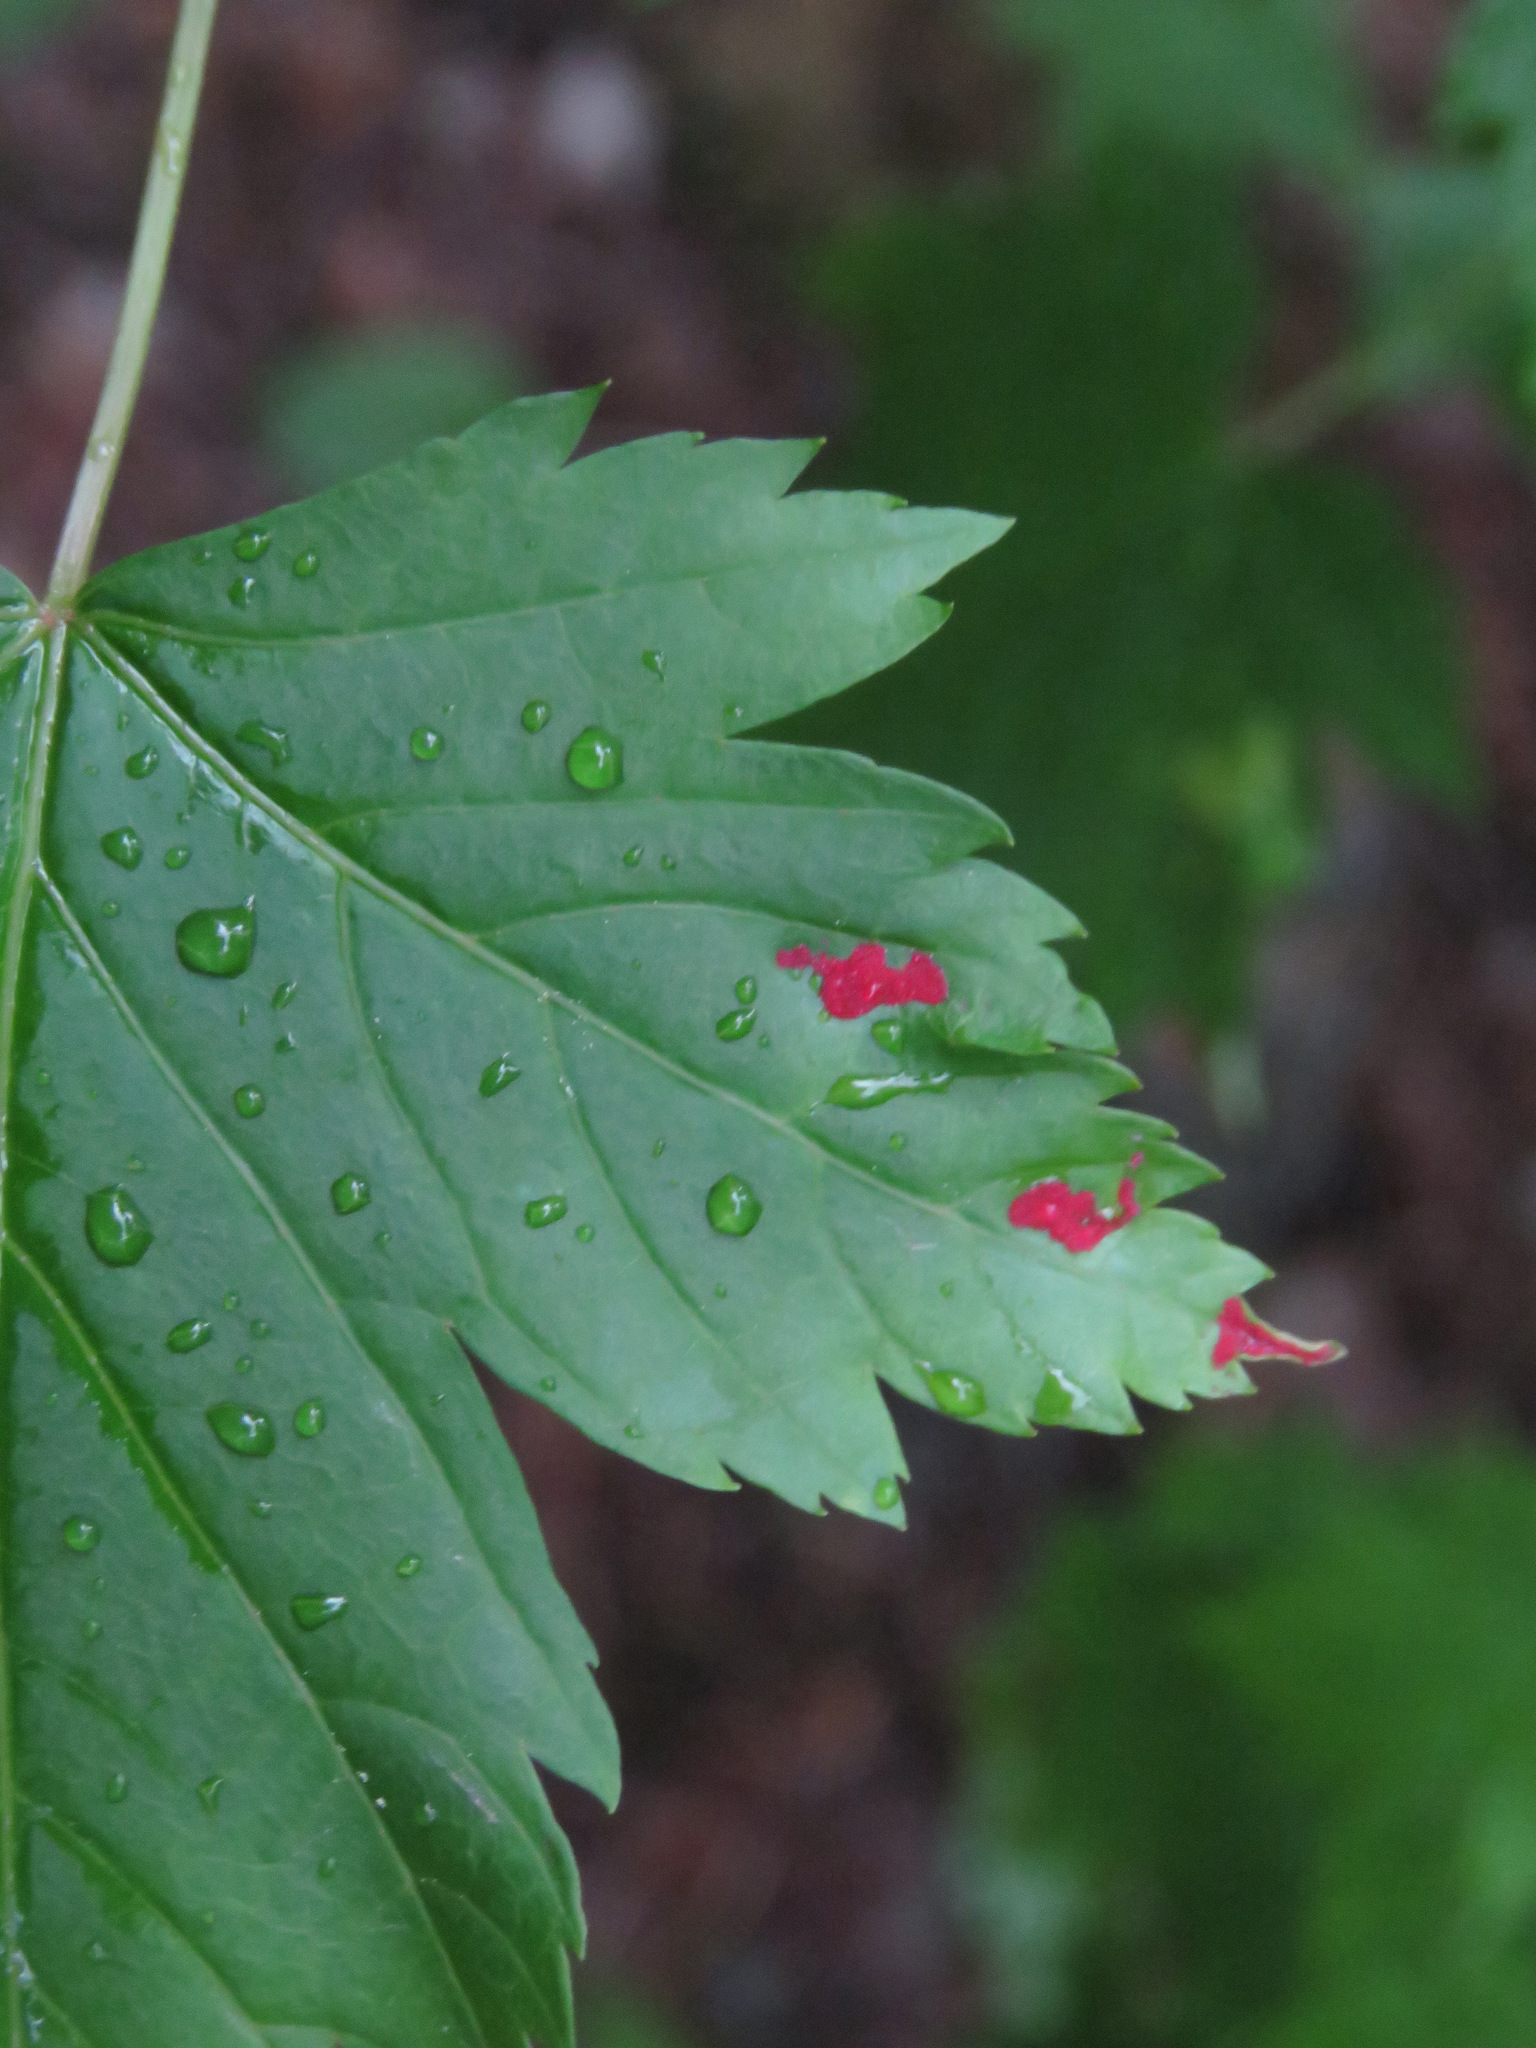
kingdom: Animalia
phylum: Arthropoda
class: Arachnida
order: Trombidiformes
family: Eriophyidae
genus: Aceria
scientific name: Aceria
